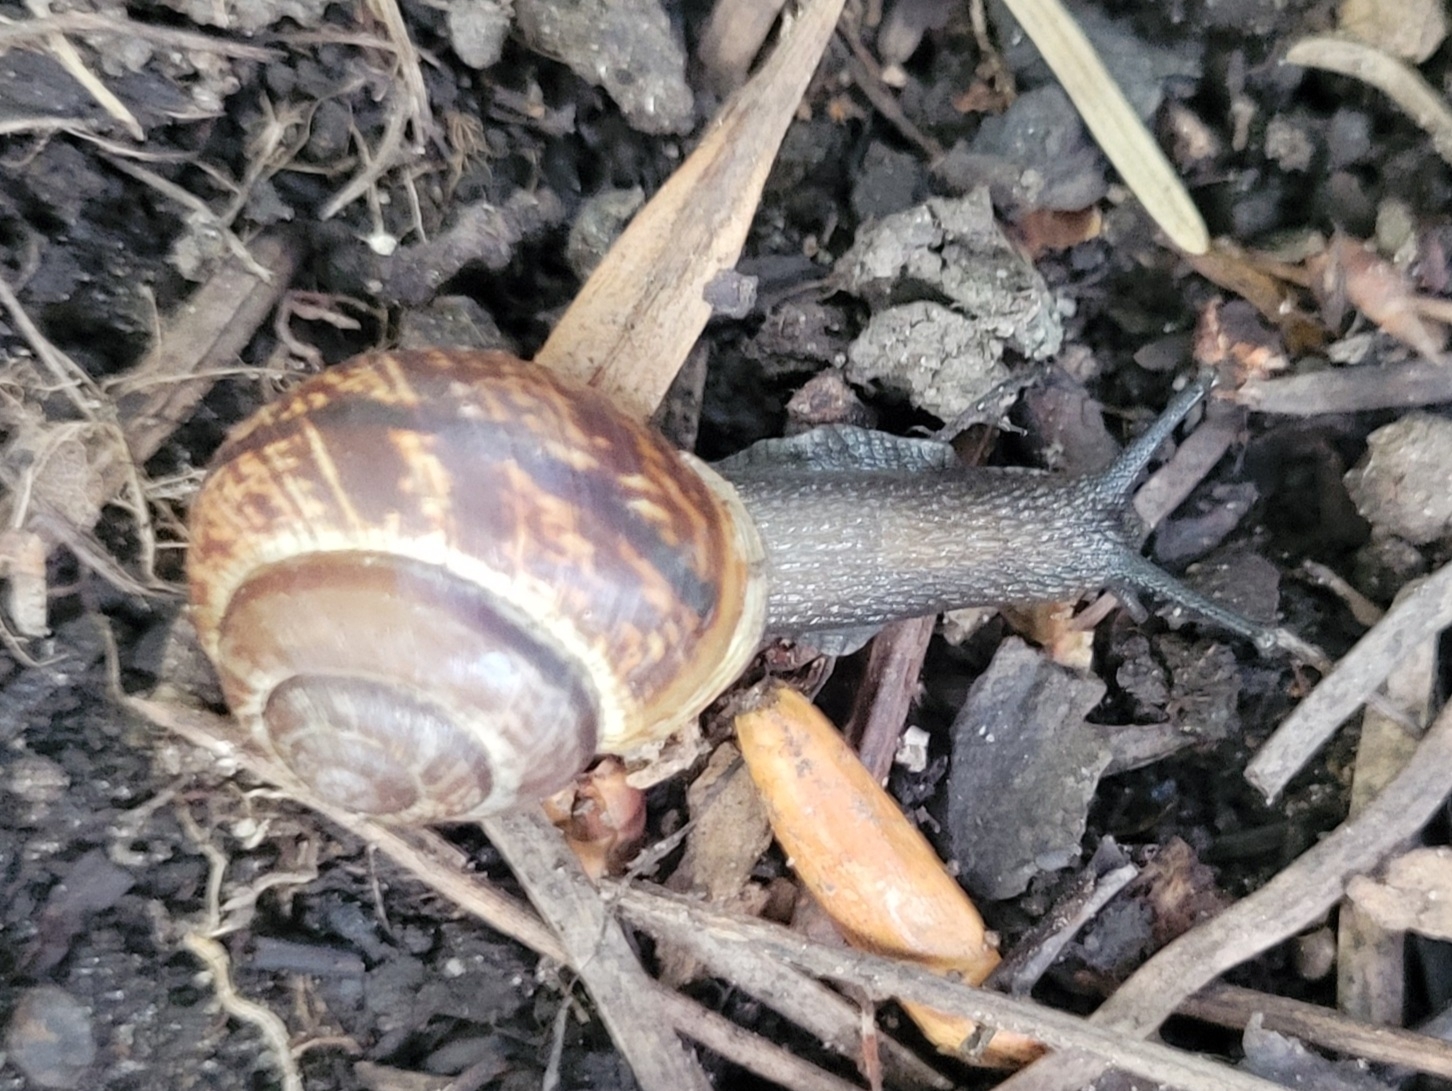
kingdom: Animalia
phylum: Mollusca
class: Gastropoda
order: Stylommatophora
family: Helicidae
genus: Arianta
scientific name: Arianta arbustorum
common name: Copse snail
